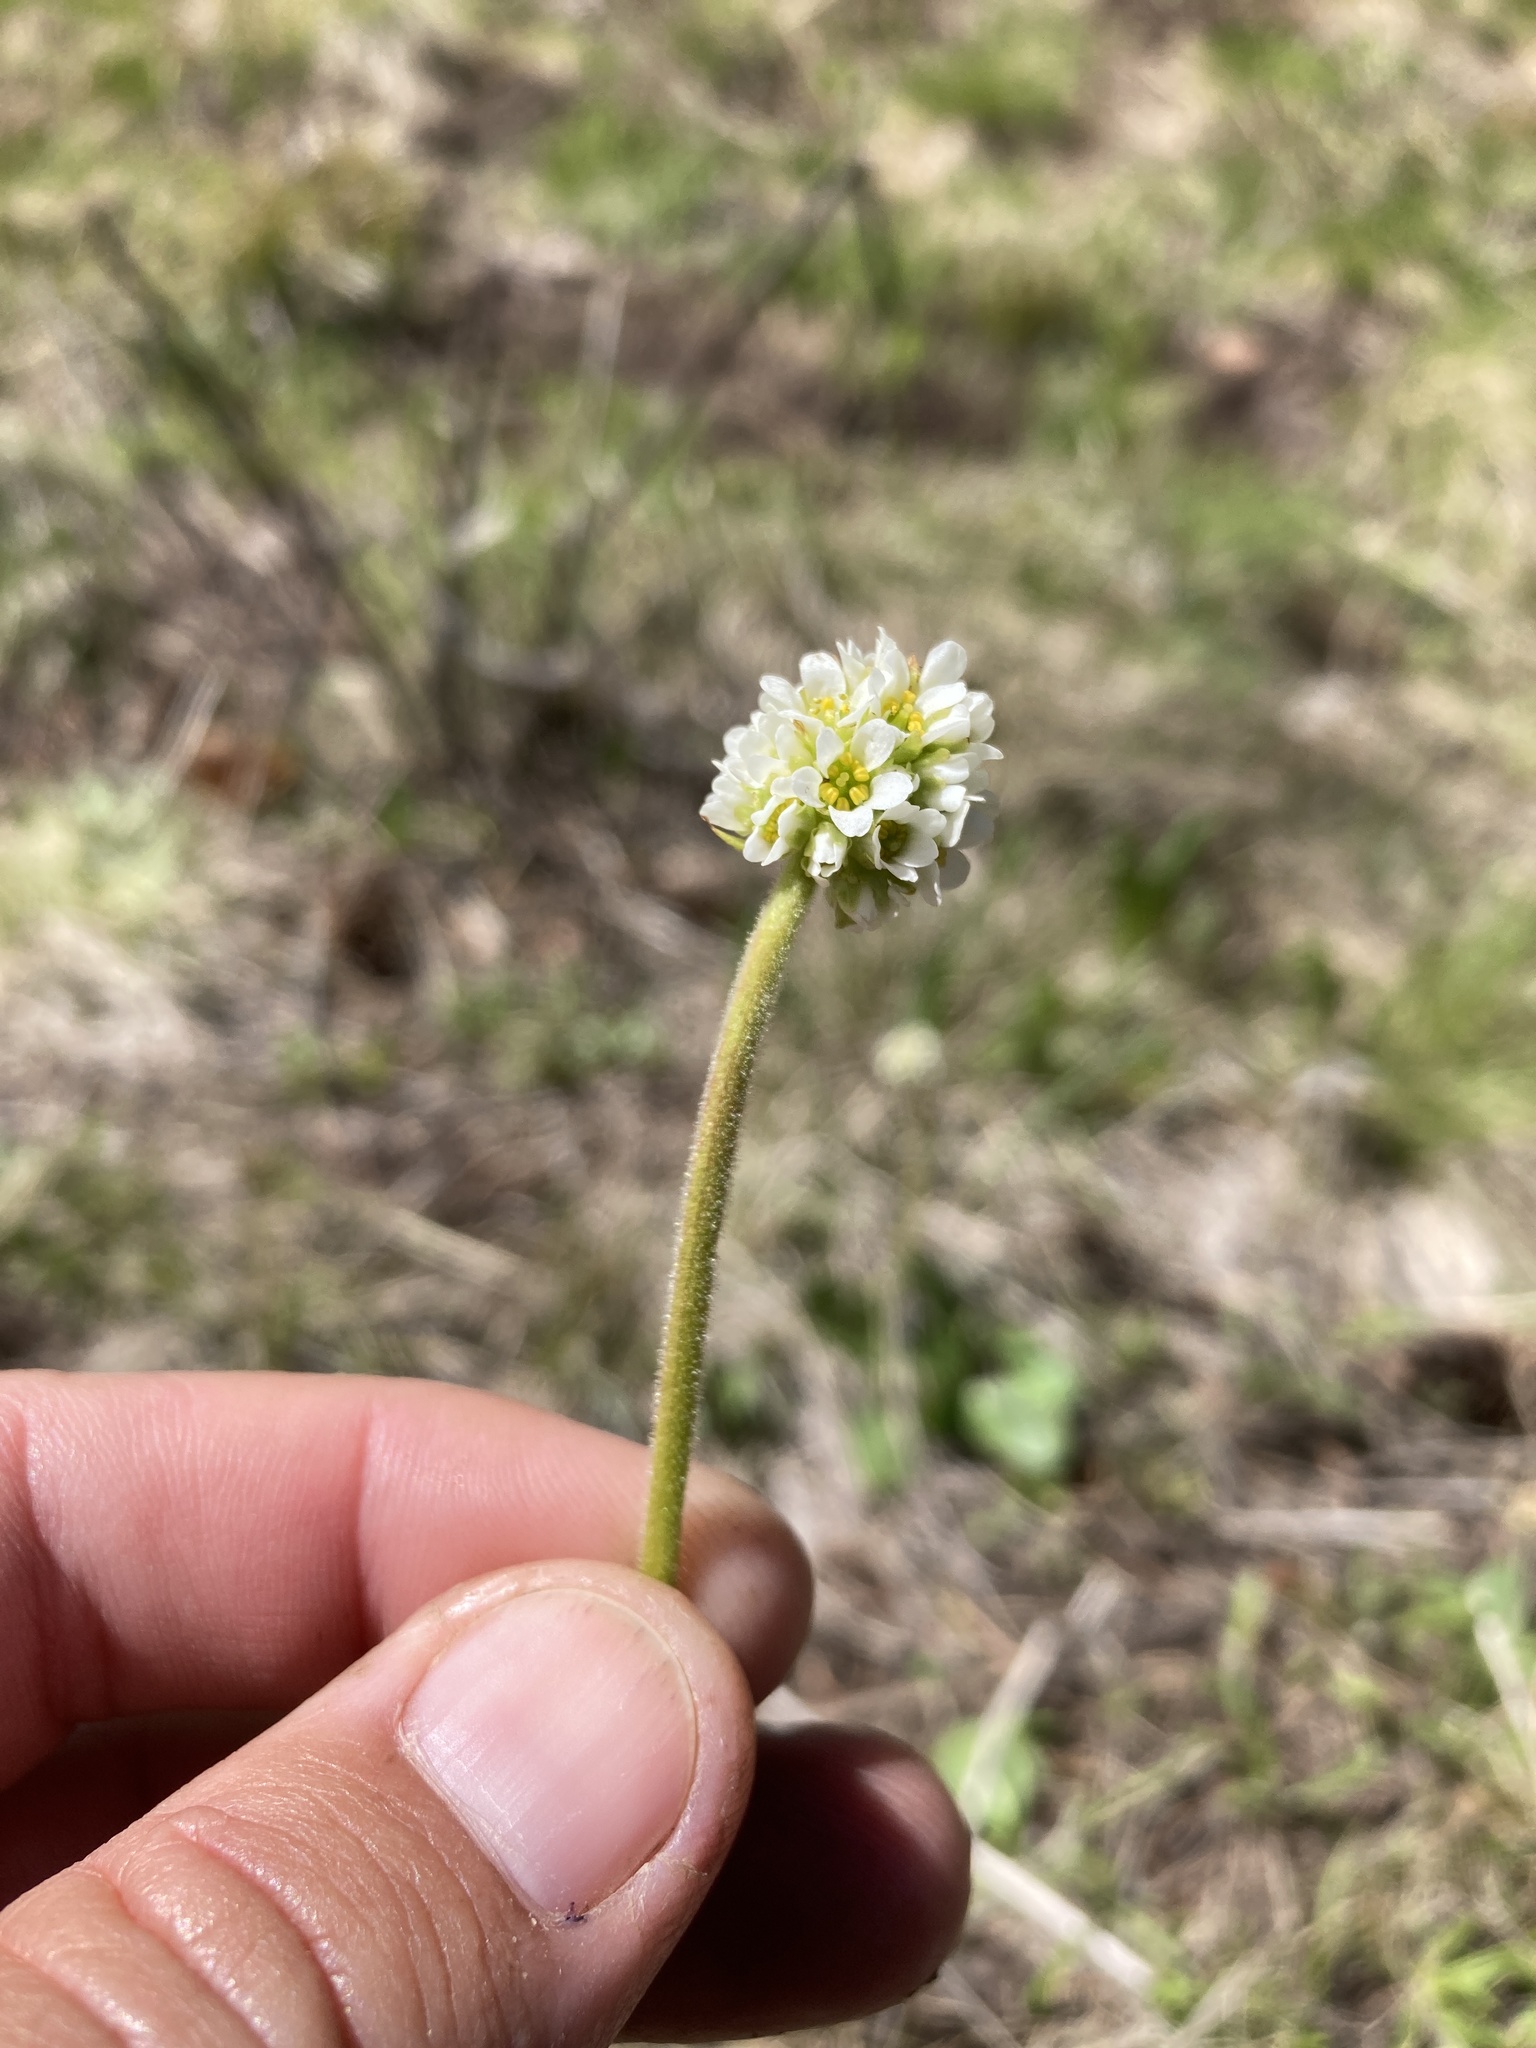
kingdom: Plantae
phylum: Tracheophyta
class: Magnoliopsida
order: Saxifragales
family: Saxifragaceae
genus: Micranthes
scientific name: Micranthes rhomboidea
